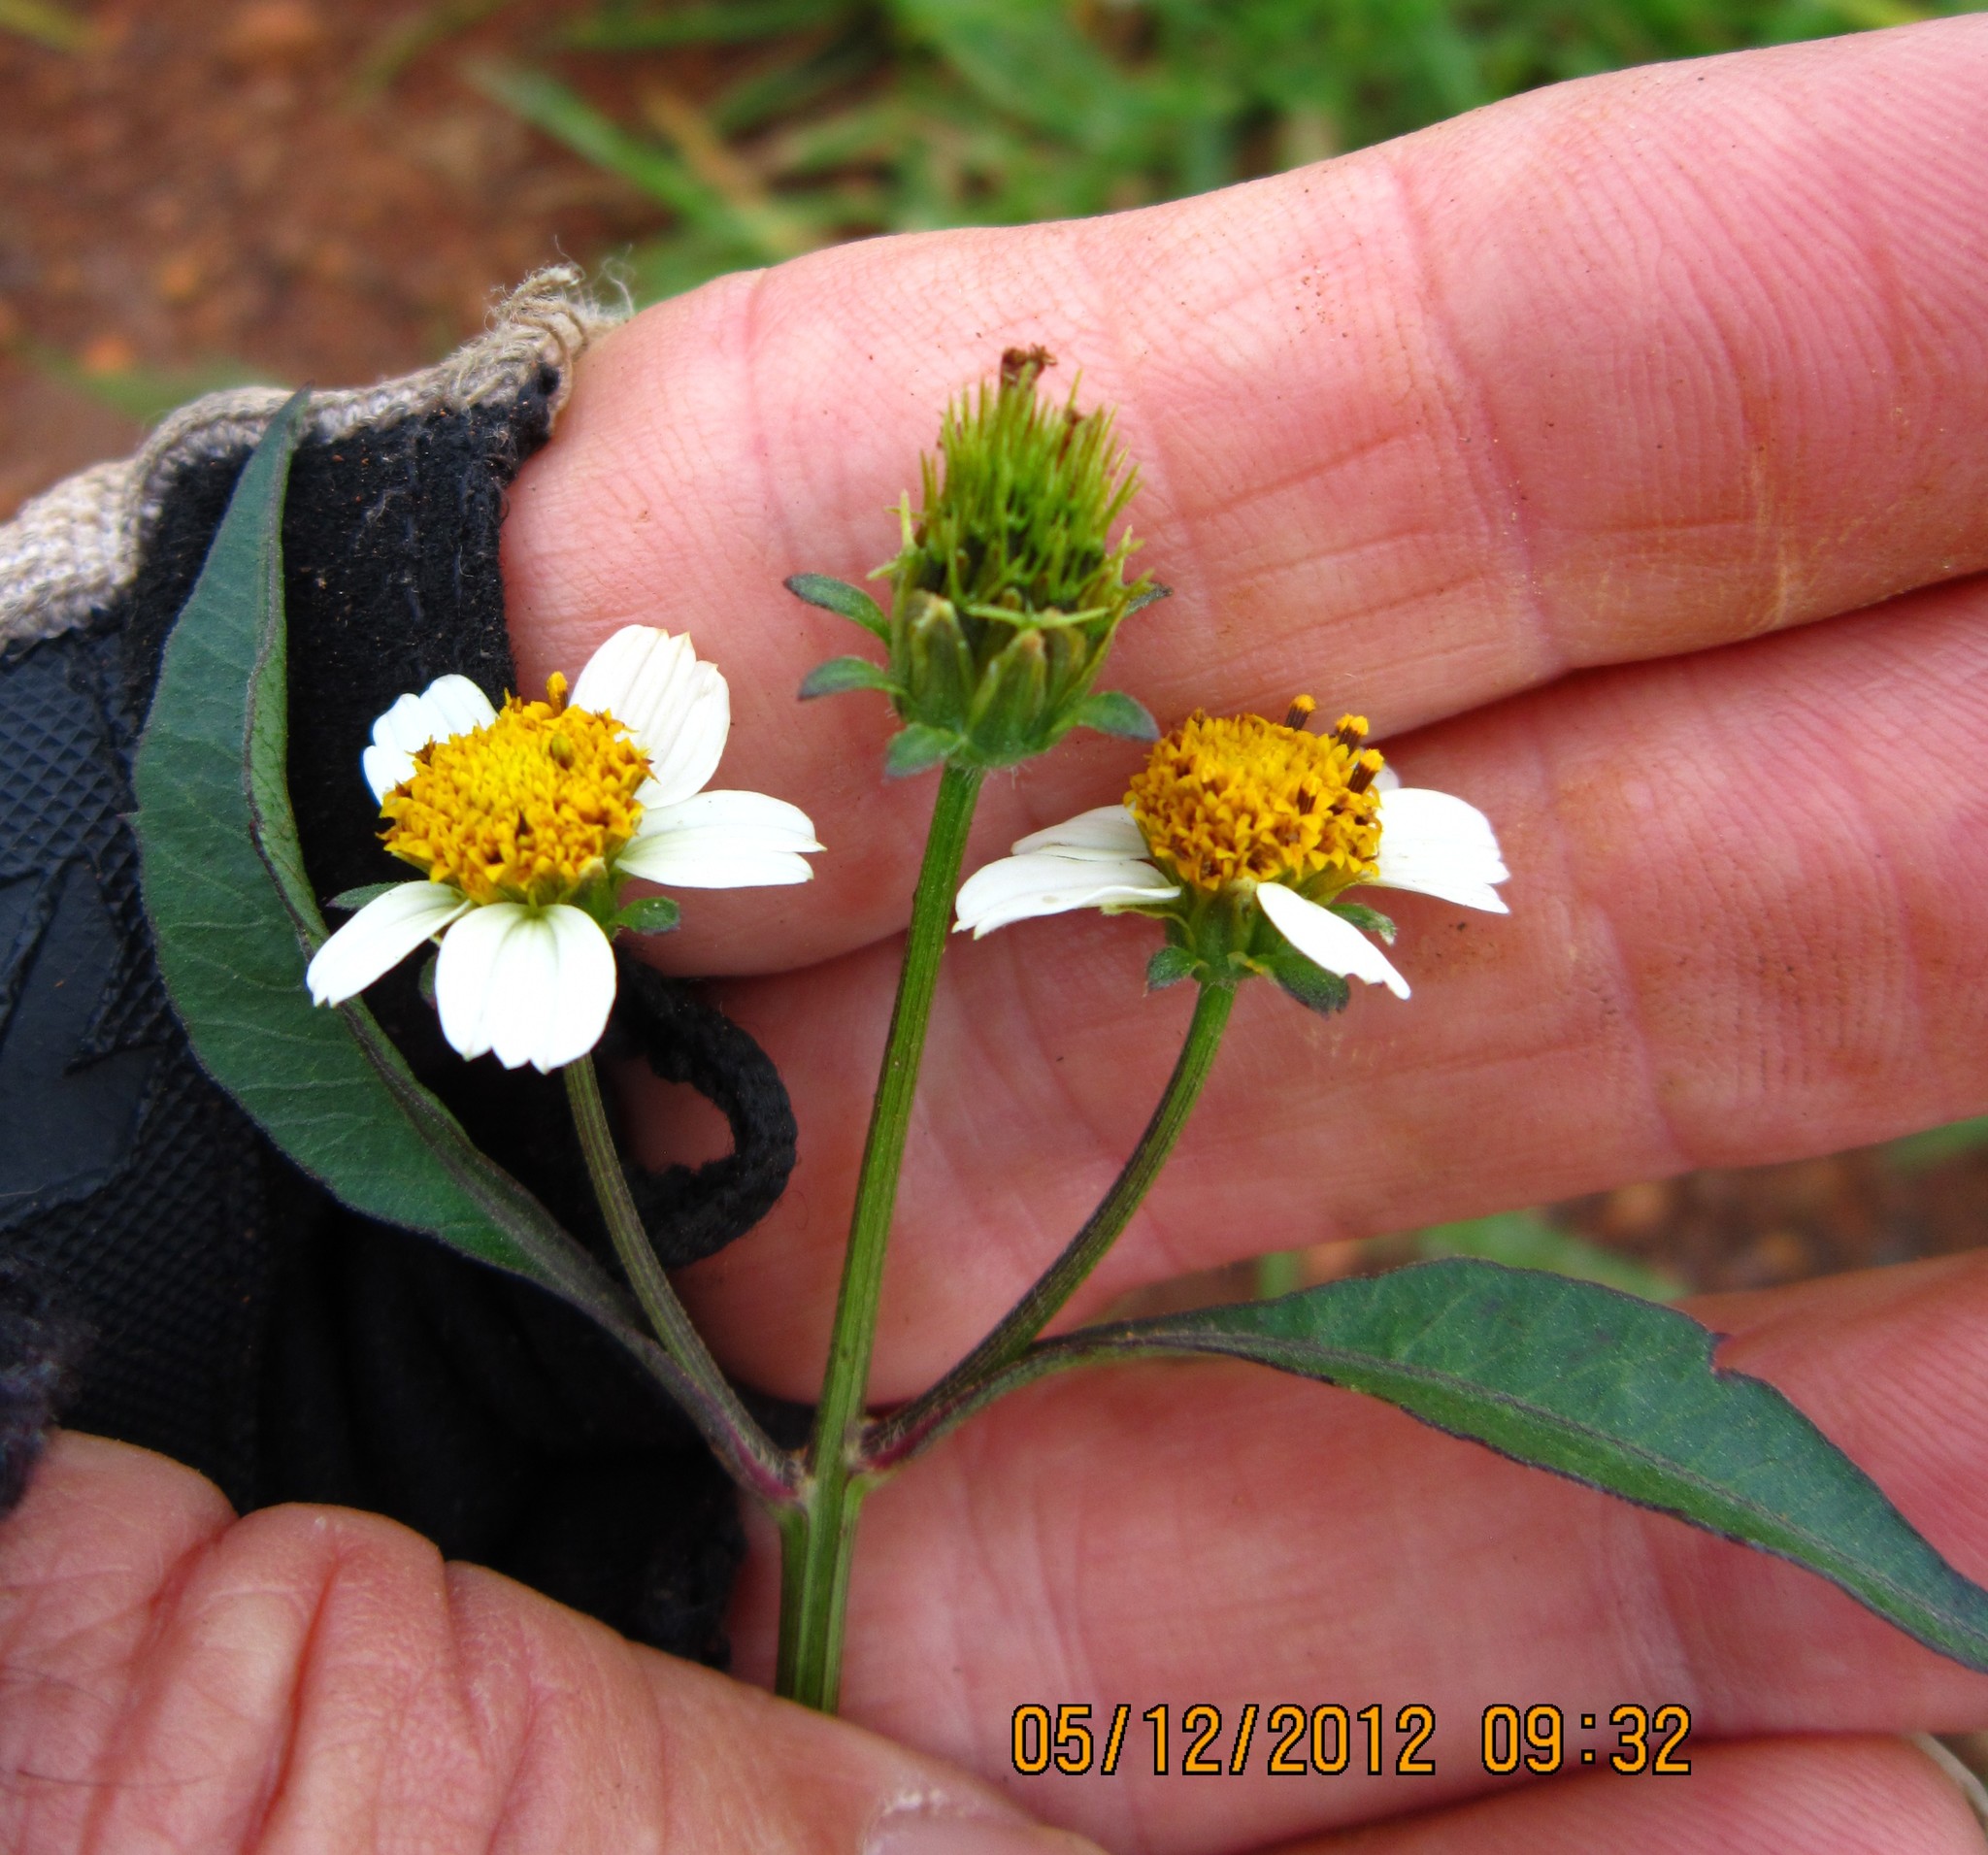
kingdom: Plantae
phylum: Tracheophyta
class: Magnoliopsida
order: Asterales
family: Asteraceae
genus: Bidens
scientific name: Bidens pilosa
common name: Black-jack
